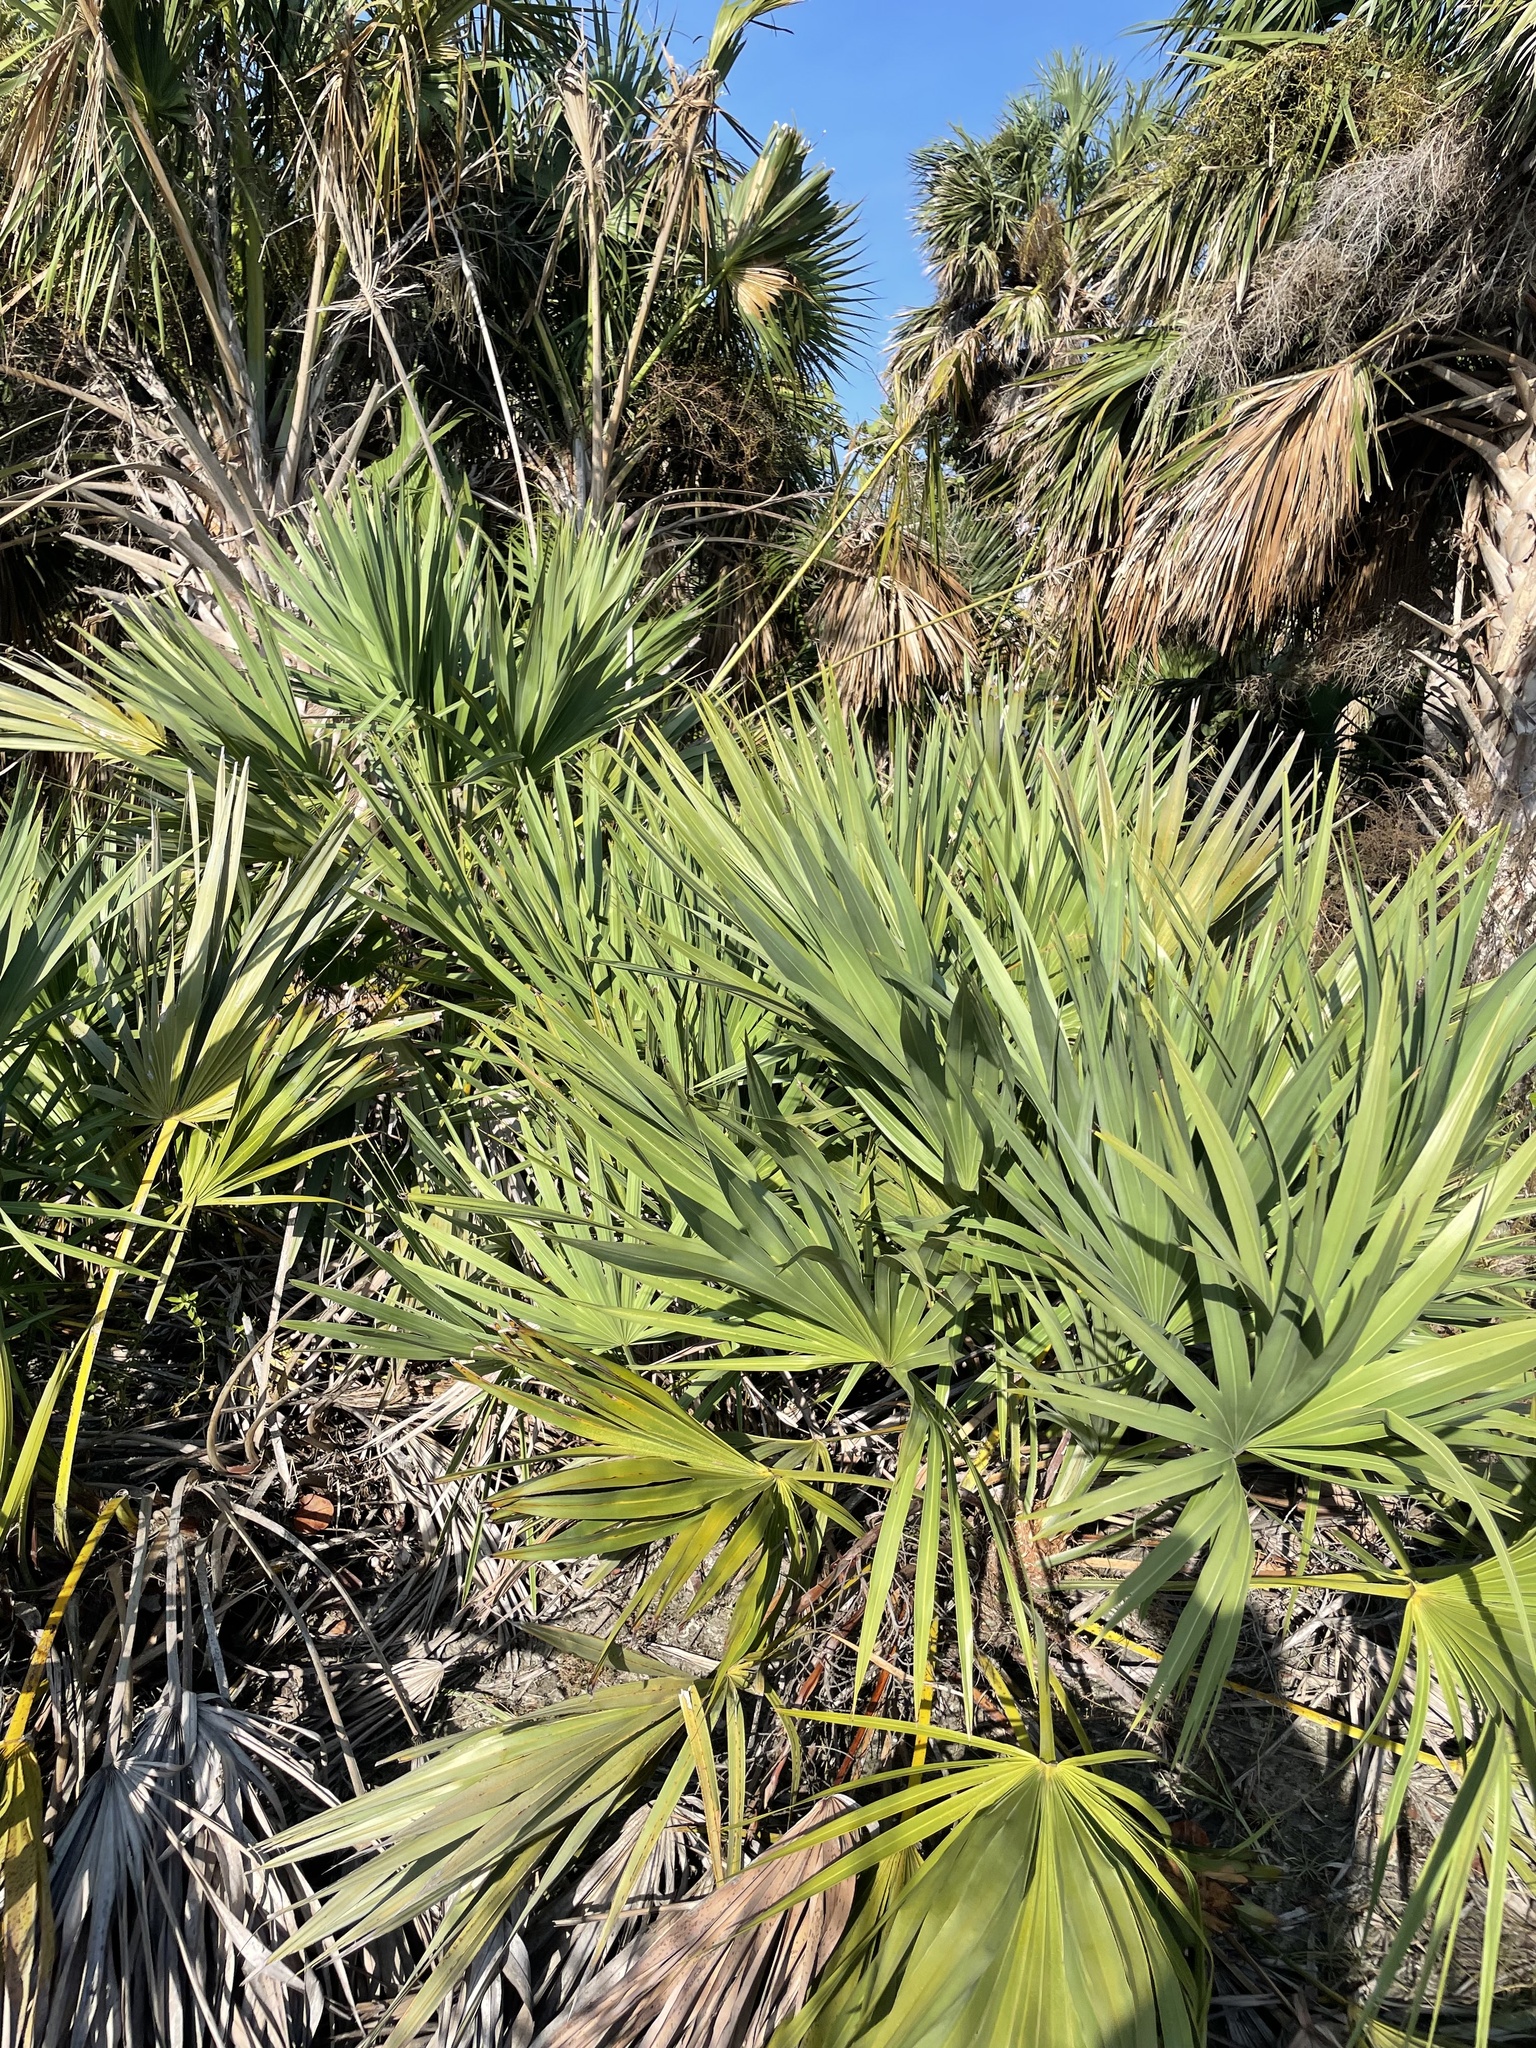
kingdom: Plantae
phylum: Tracheophyta
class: Liliopsida
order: Arecales
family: Arecaceae
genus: Serenoa
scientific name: Serenoa repens
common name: Saw-palmetto
